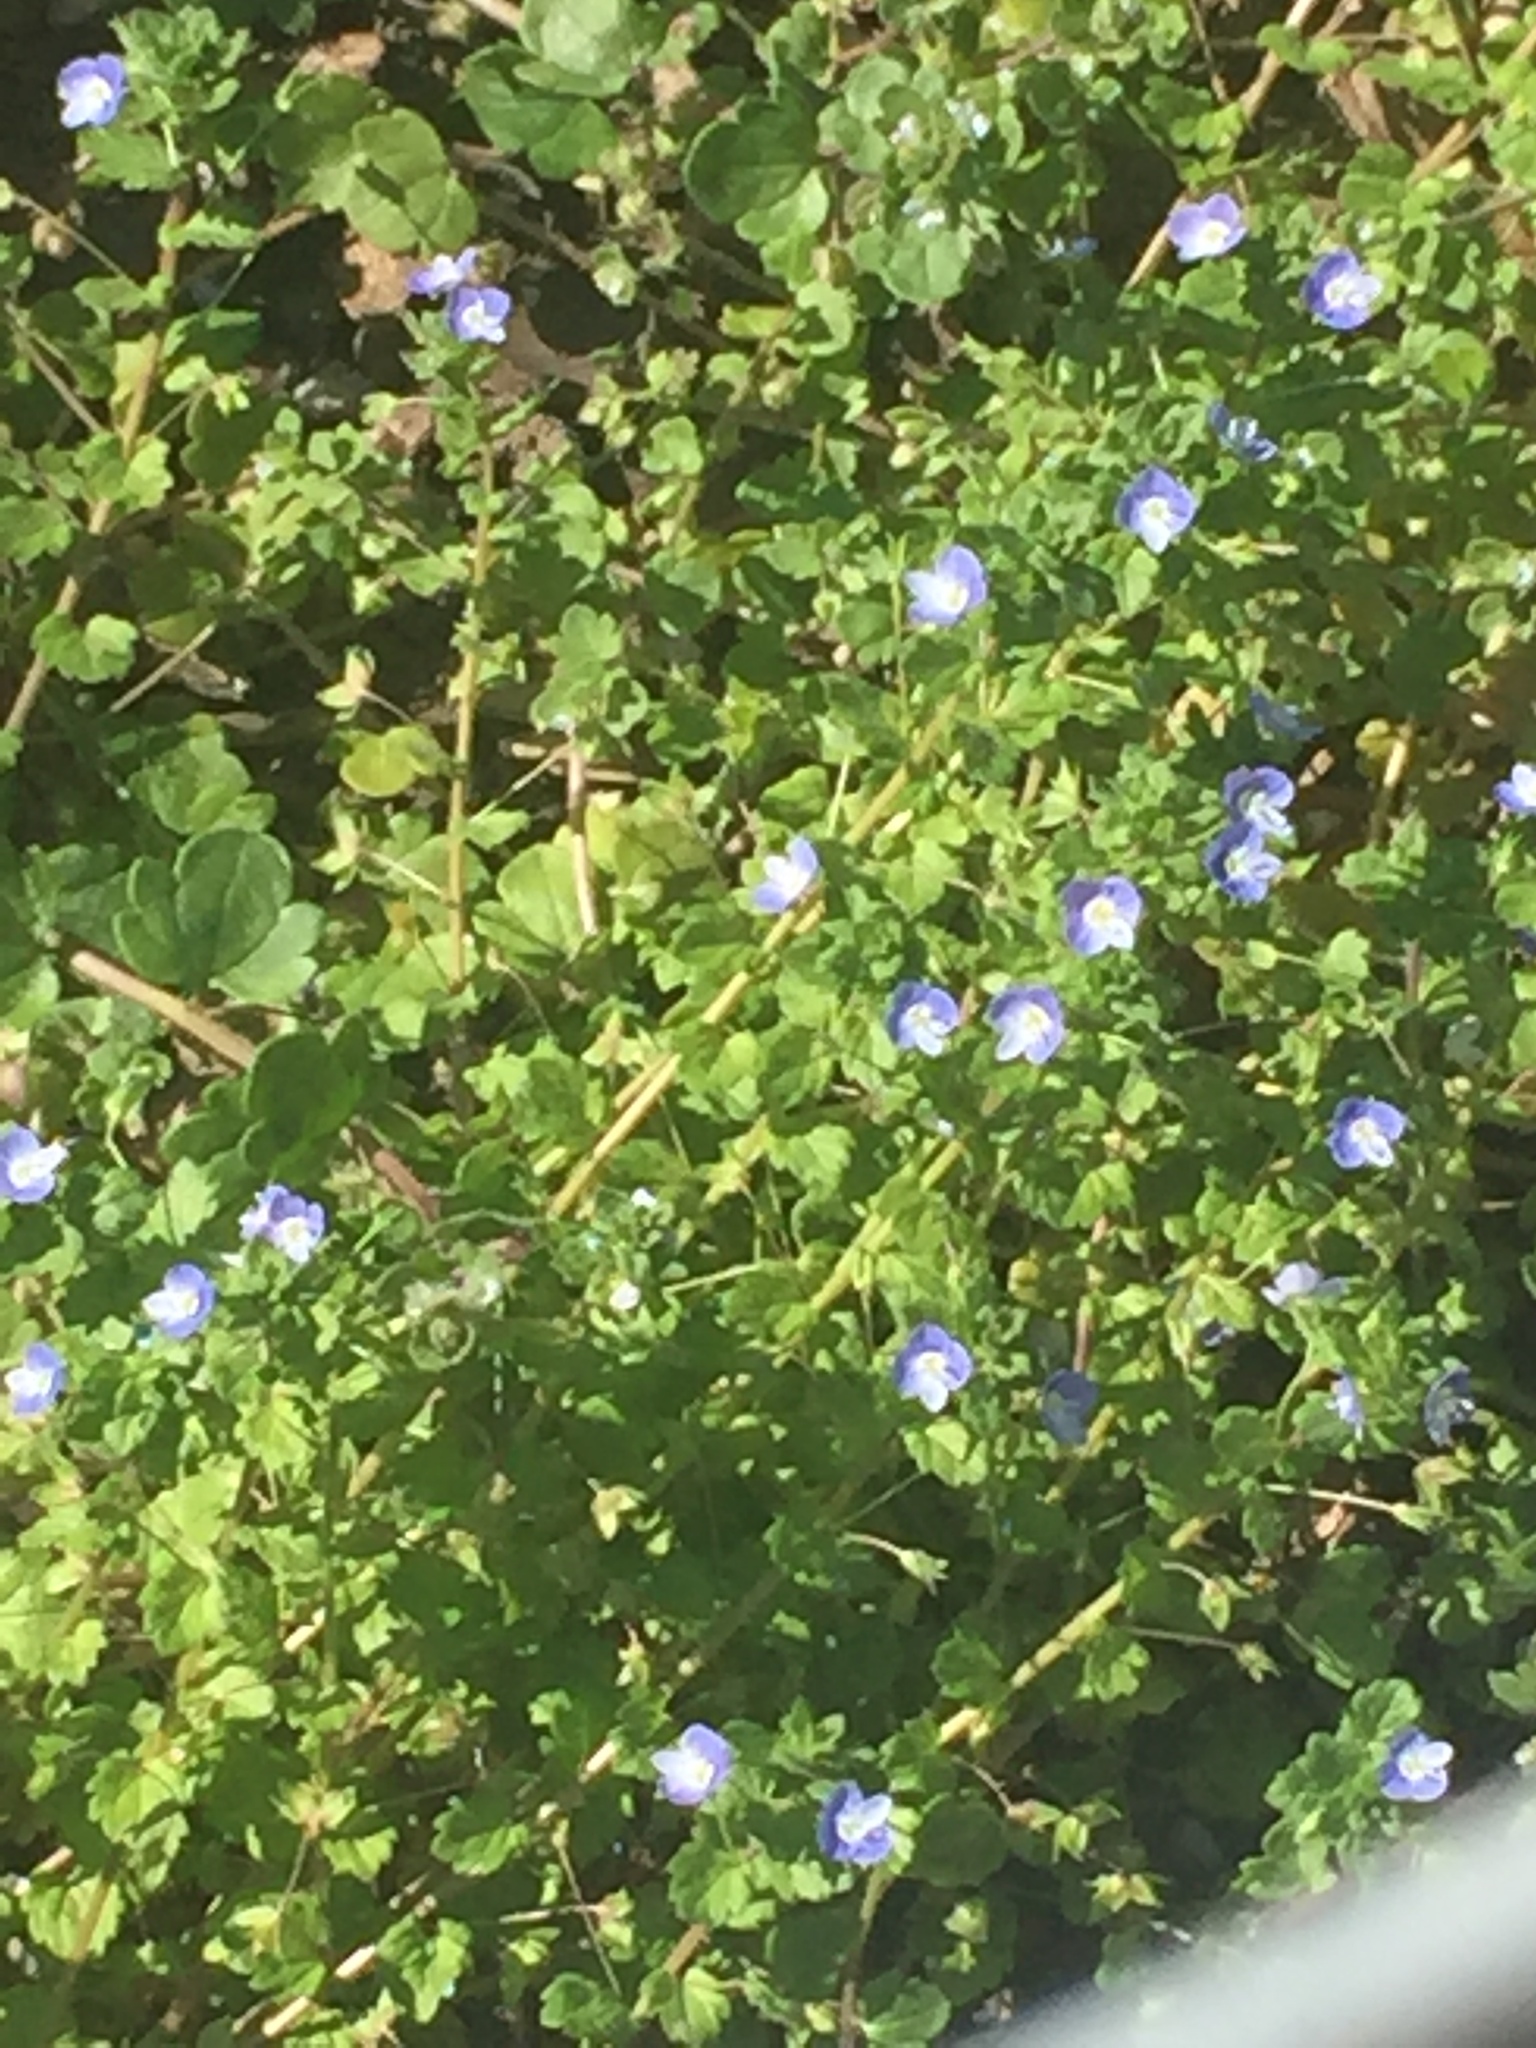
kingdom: Plantae
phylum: Tracheophyta
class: Magnoliopsida
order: Lamiales
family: Plantaginaceae
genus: Veronica
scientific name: Veronica persica
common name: Common field-speedwell
